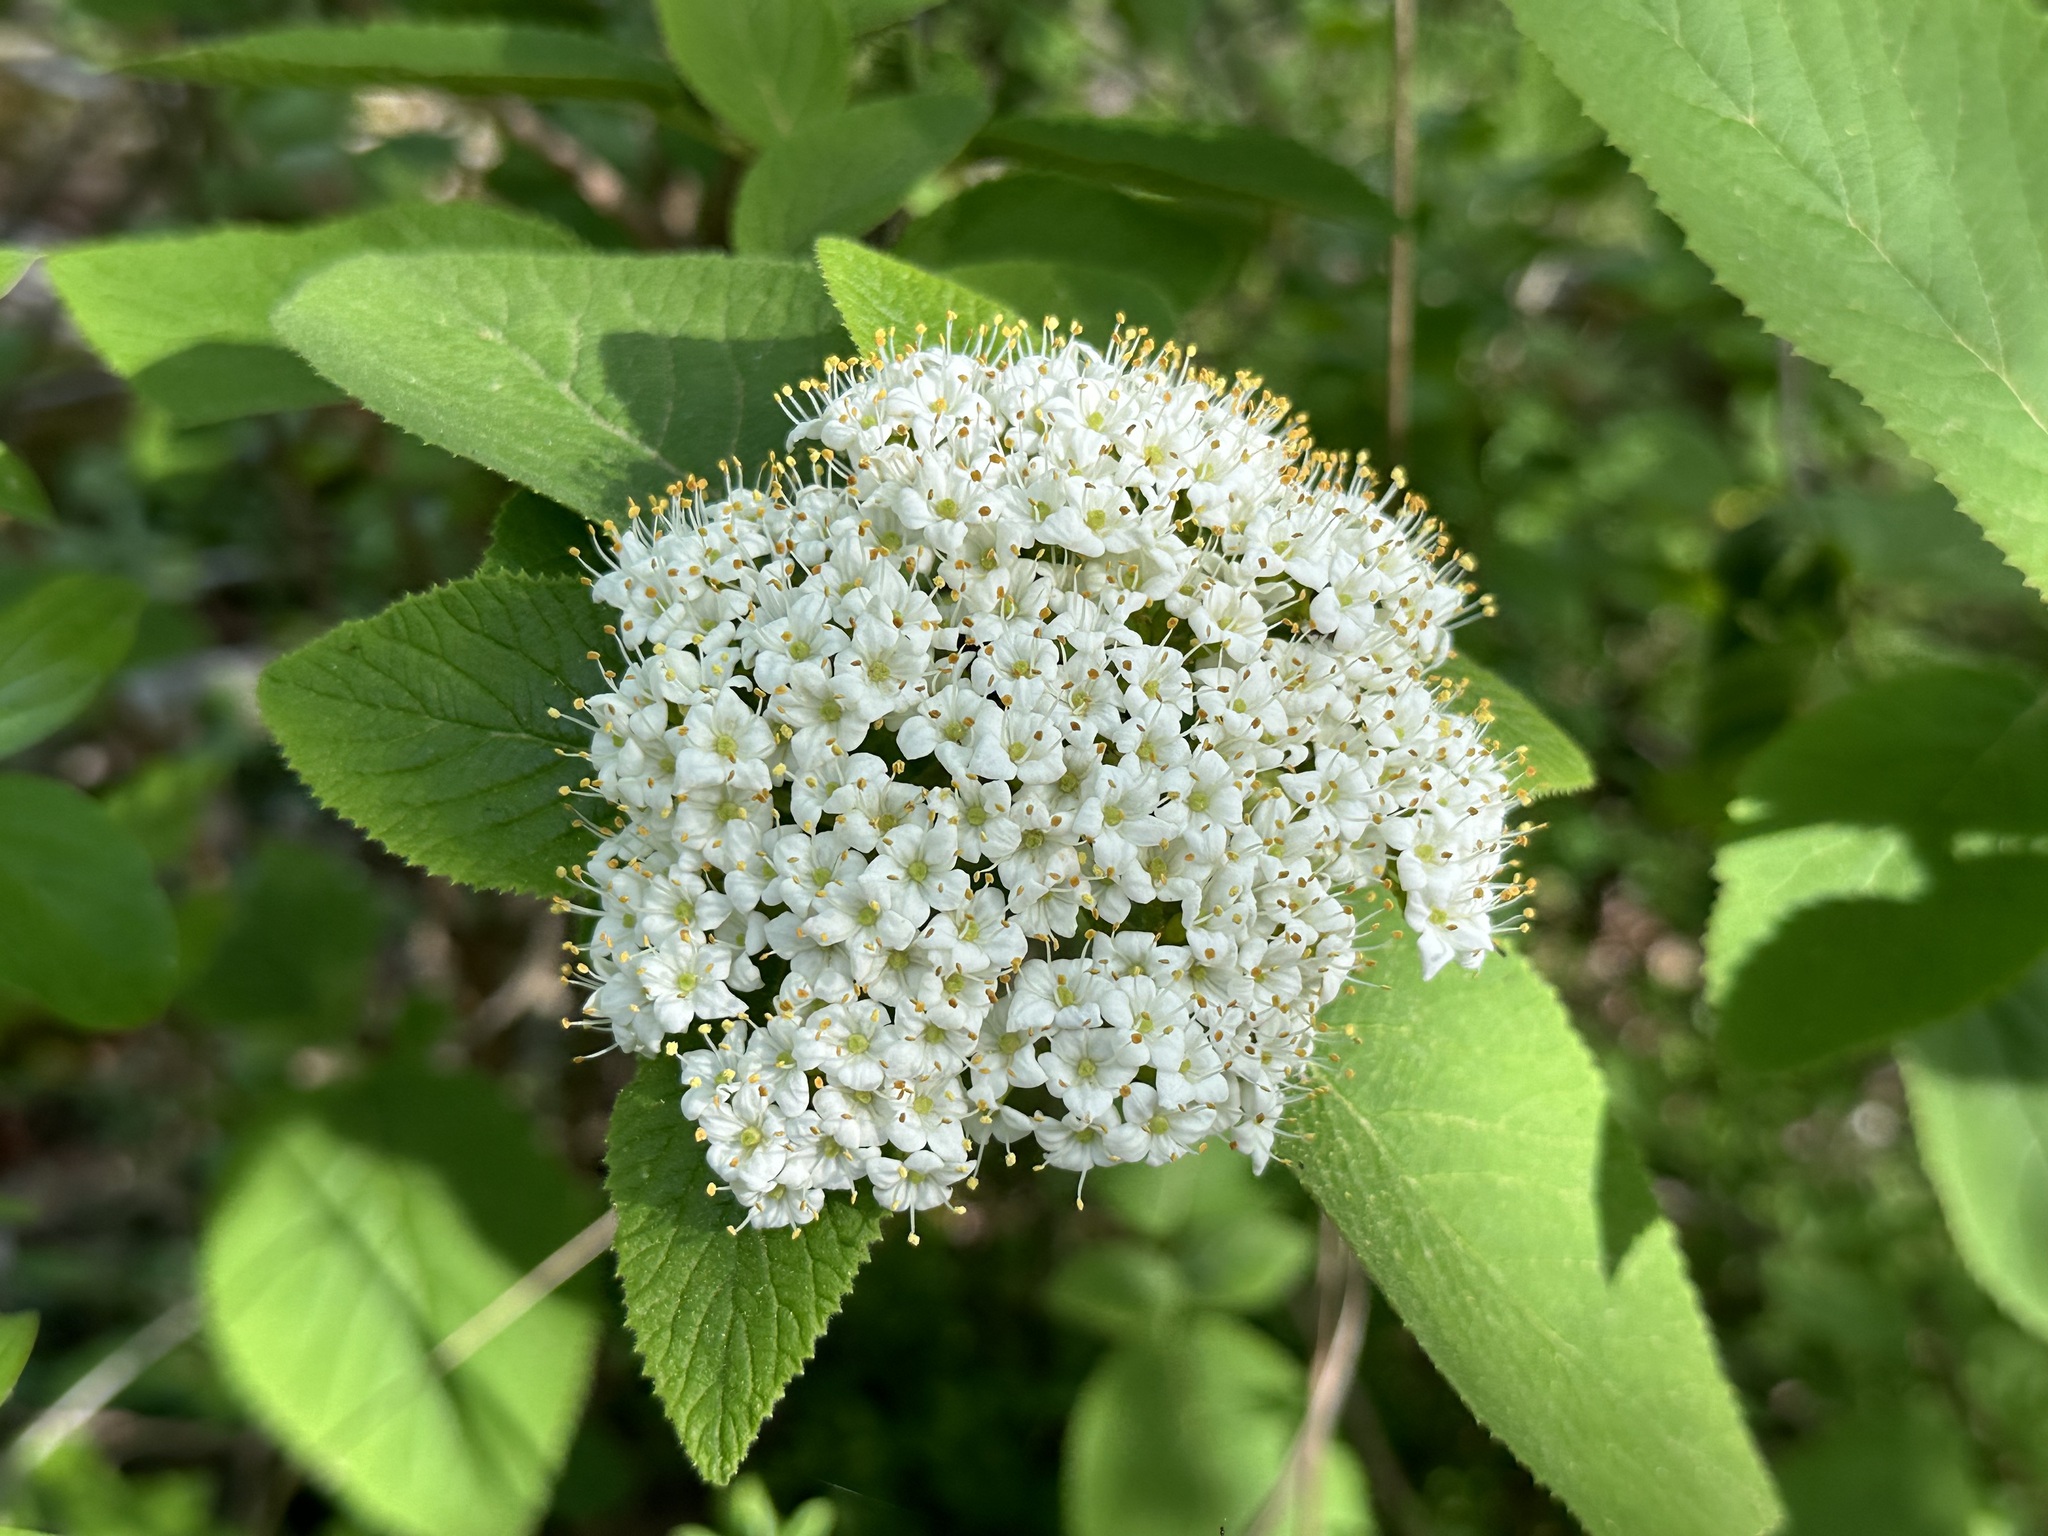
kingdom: Plantae
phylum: Tracheophyta
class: Magnoliopsida
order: Dipsacales
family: Viburnaceae
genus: Viburnum
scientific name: Viburnum lantana
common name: Wayfaring tree
